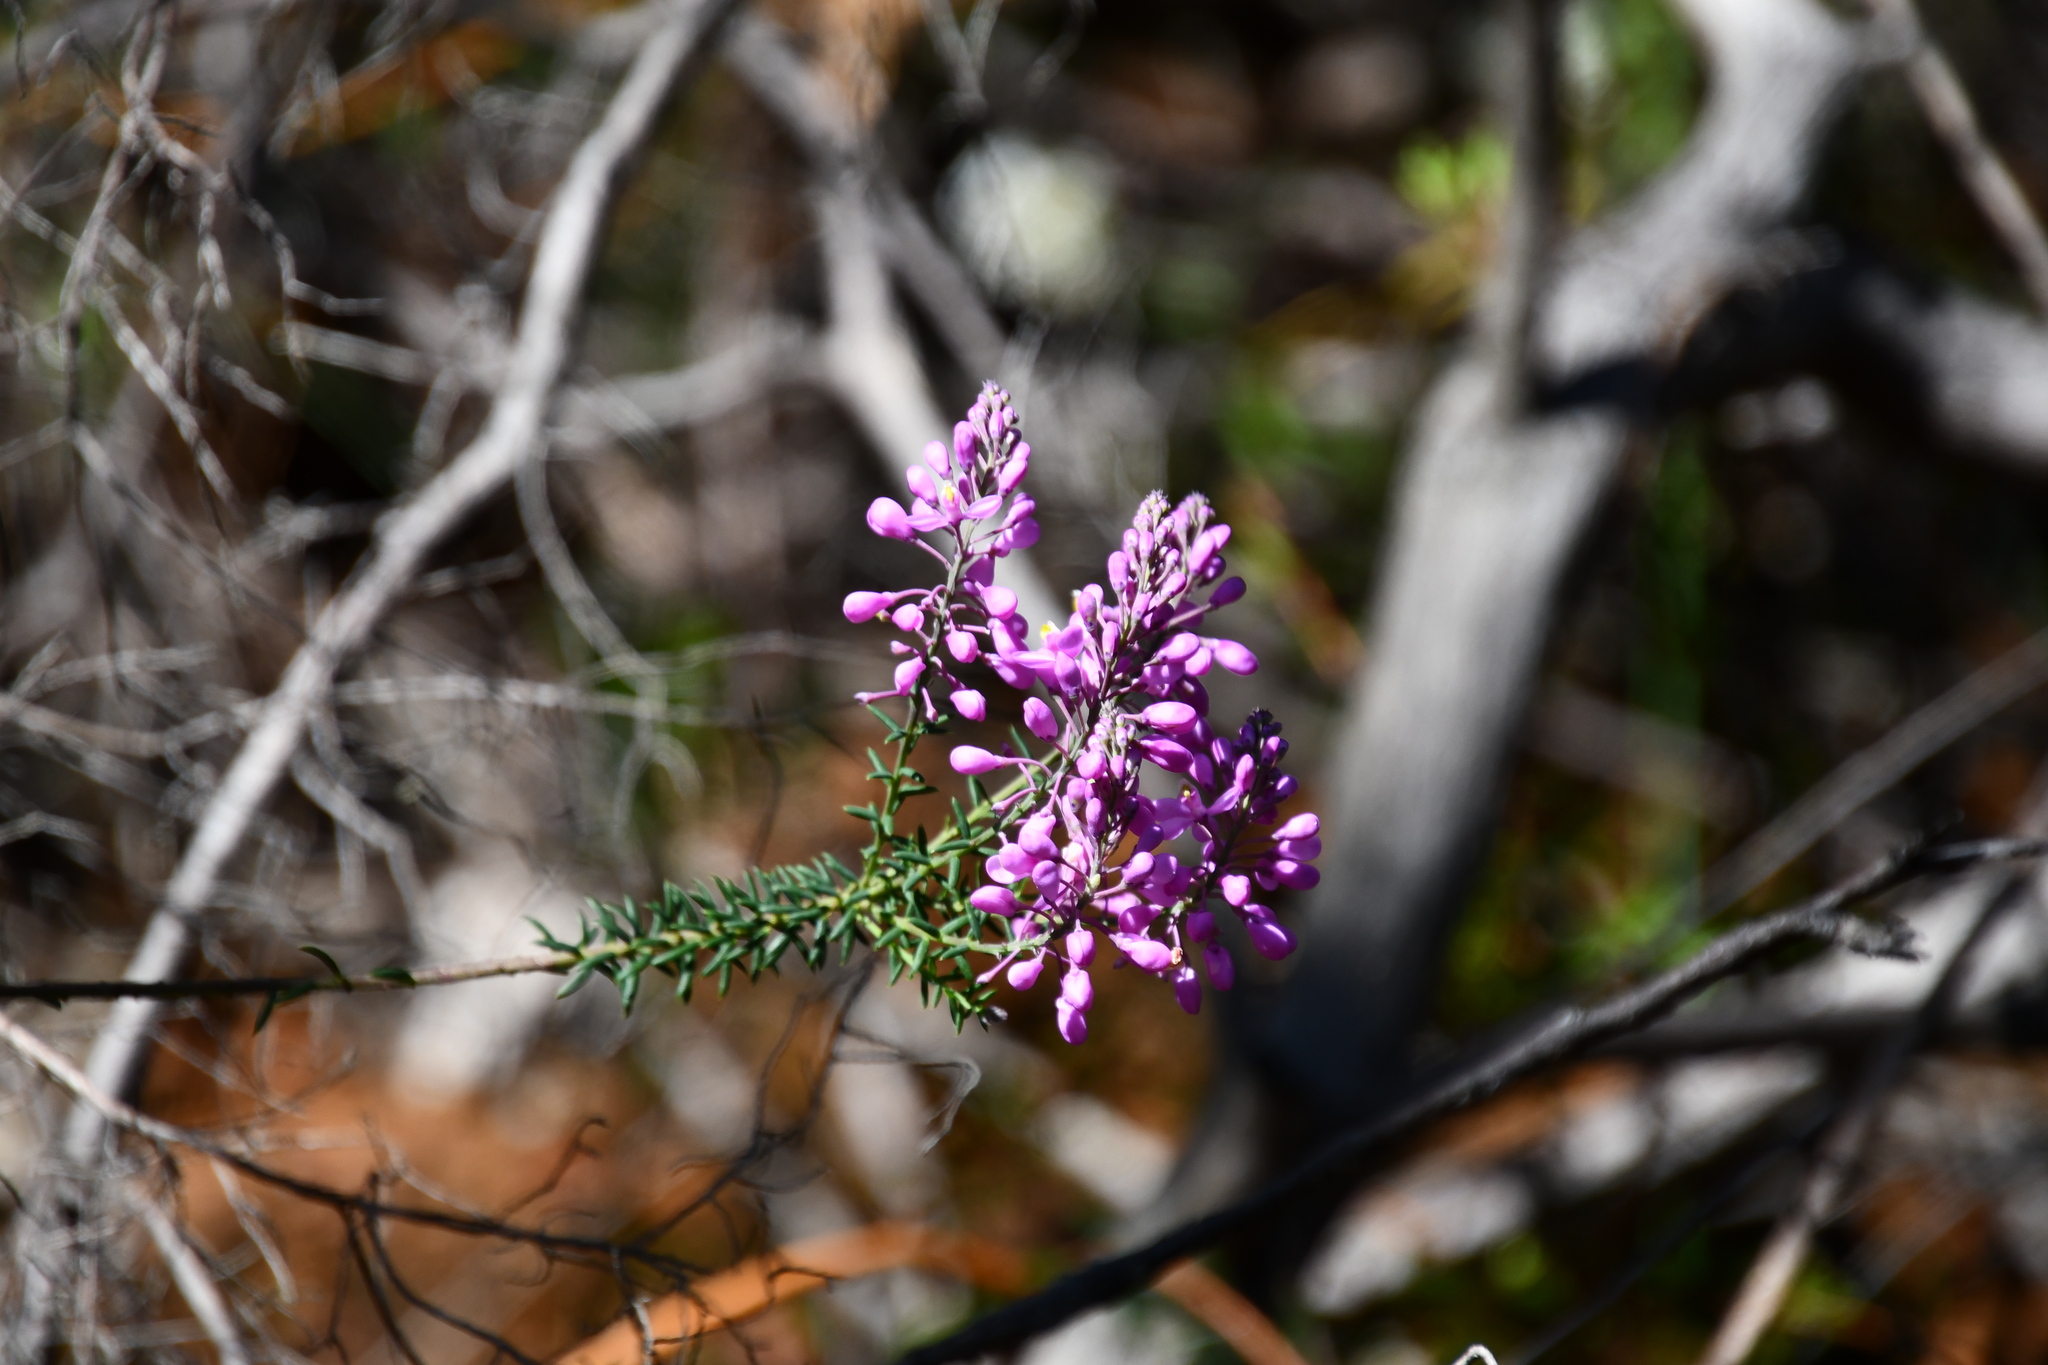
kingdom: Plantae
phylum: Tracheophyta
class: Magnoliopsida
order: Fabales
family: Polygalaceae
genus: Comesperma
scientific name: Comesperma ericinum
